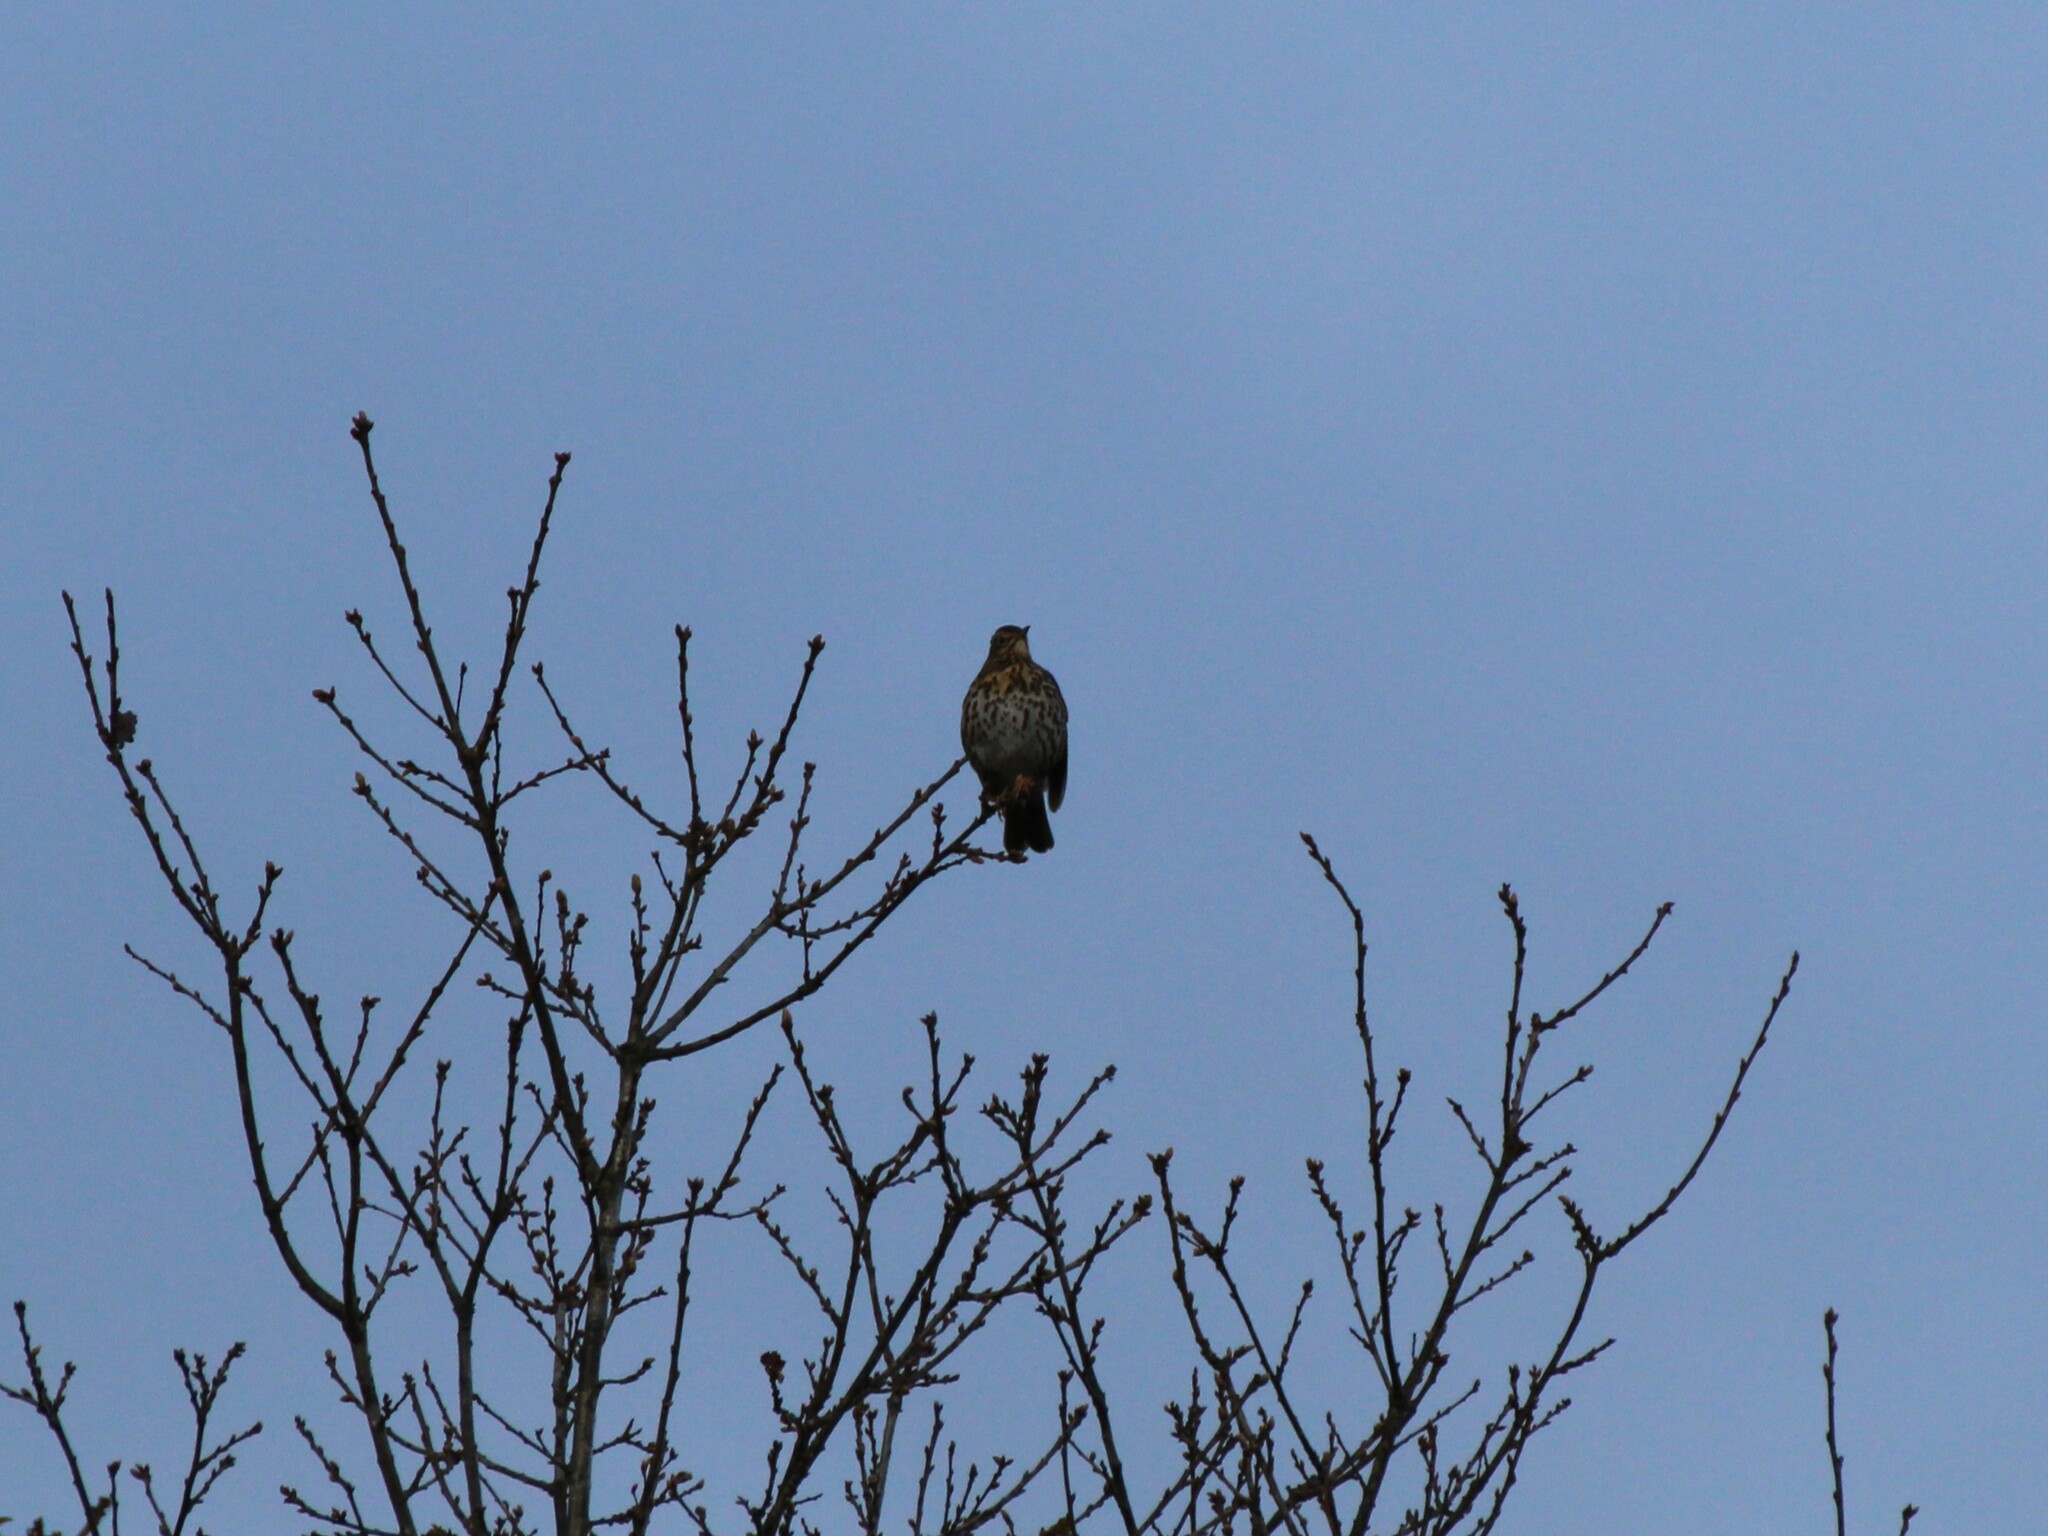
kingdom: Animalia
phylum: Chordata
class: Aves
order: Passeriformes
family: Turdidae
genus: Turdus
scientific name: Turdus philomelos
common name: Song thrush
